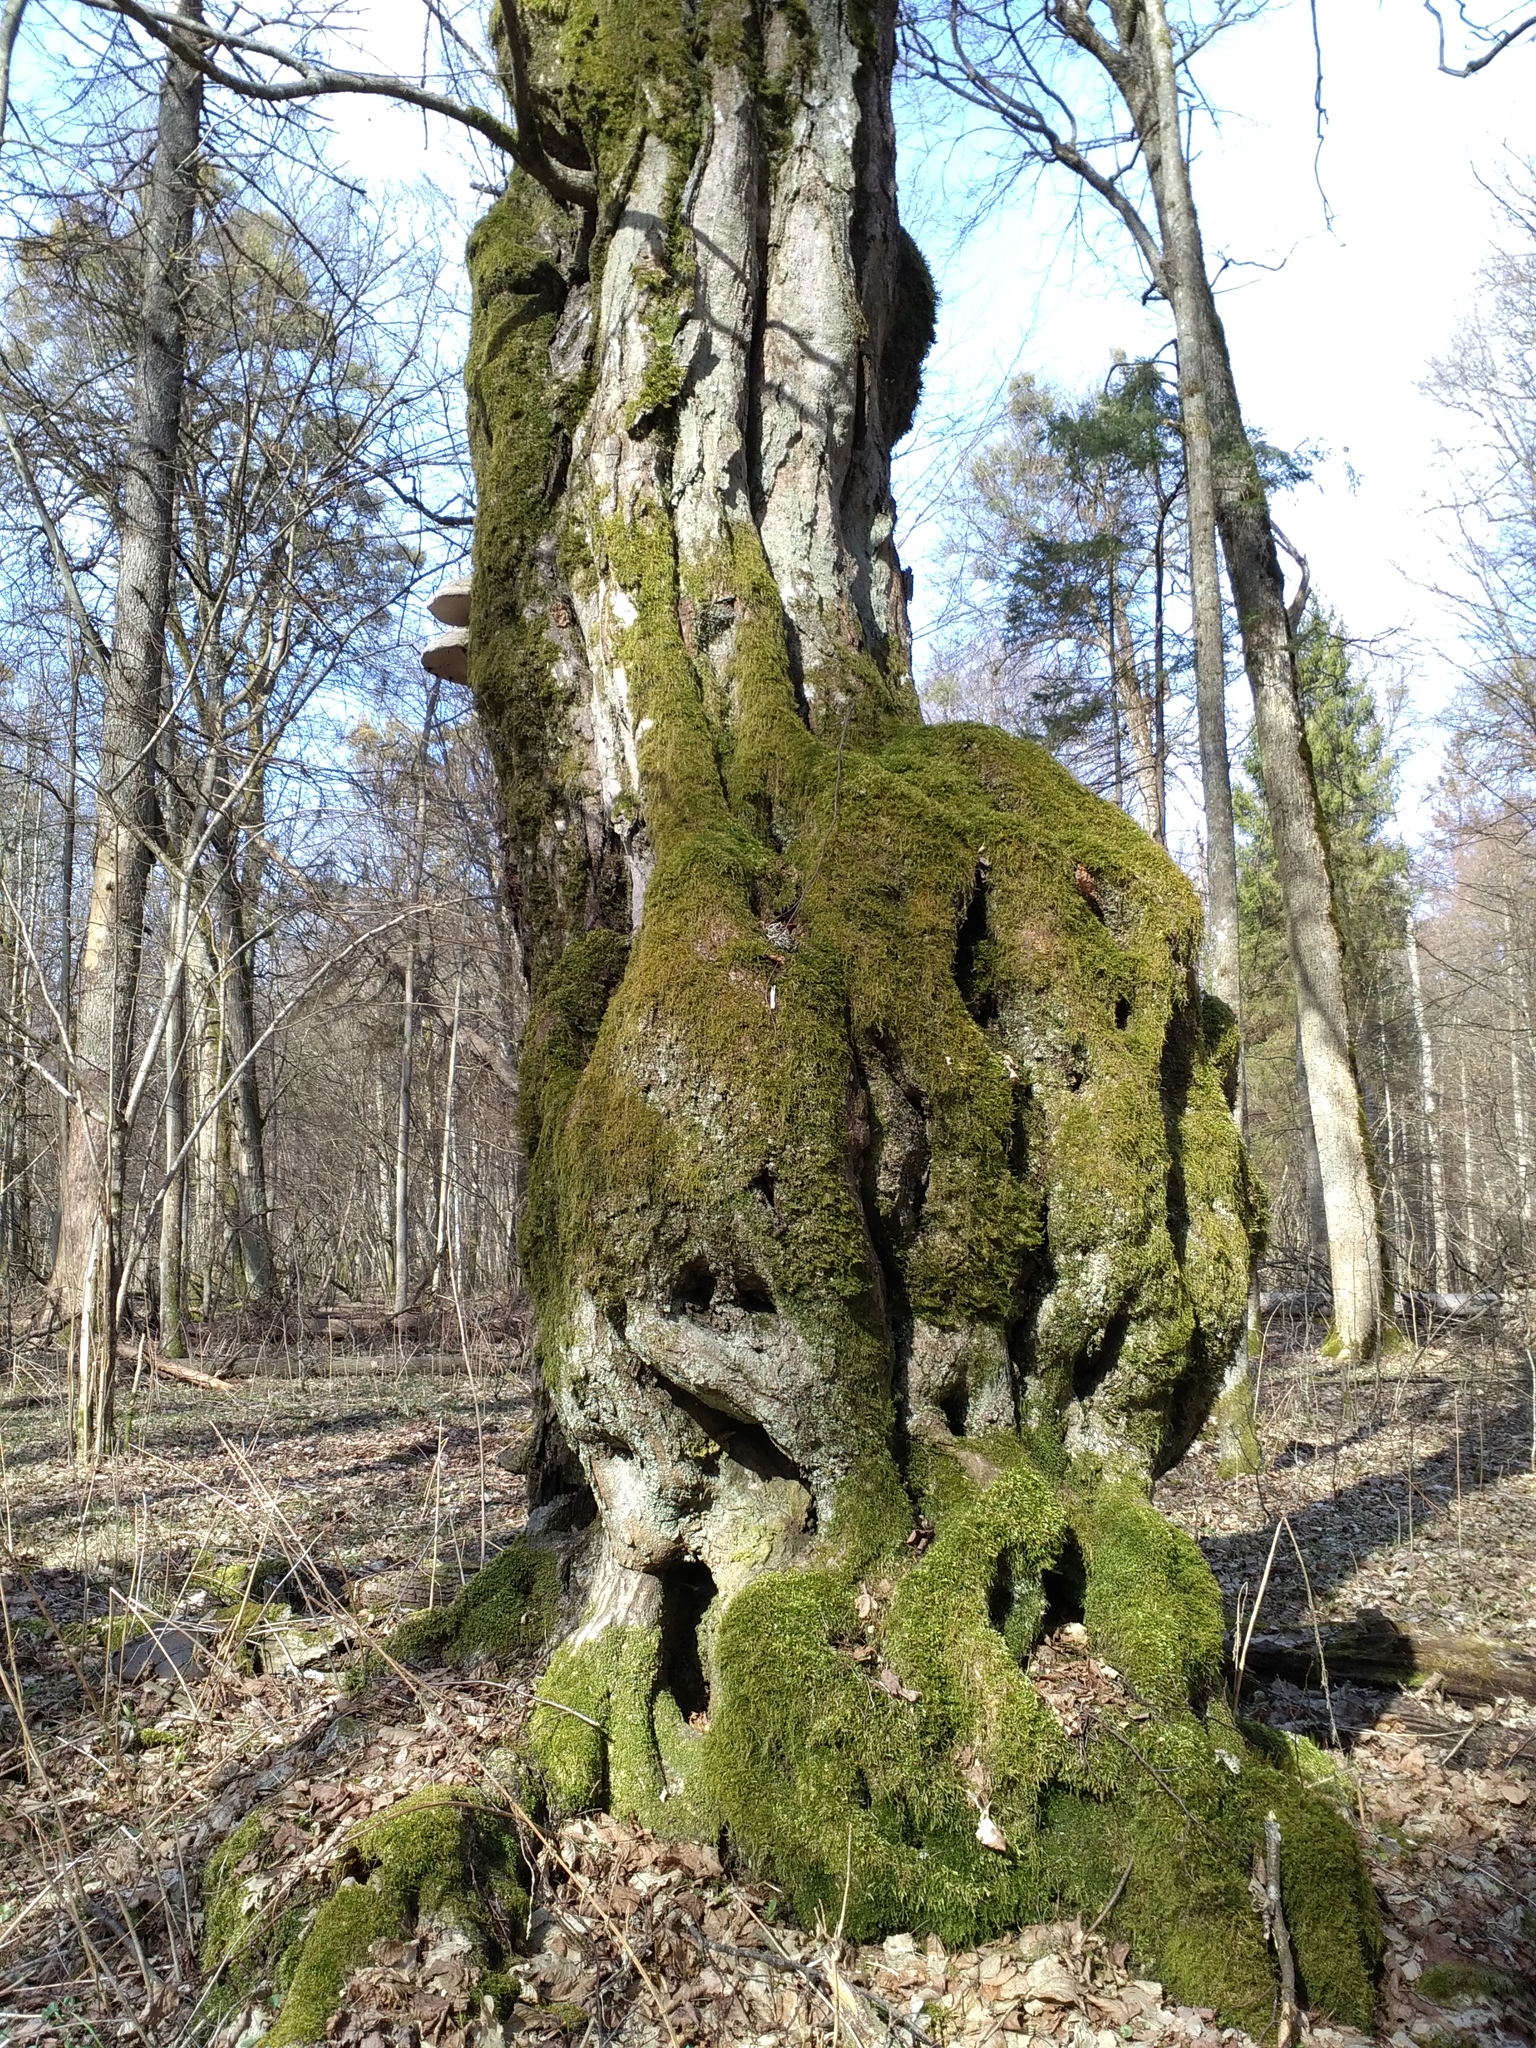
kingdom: Plantae
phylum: Tracheophyta
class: Magnoliopsida
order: Fagales
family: Betulaceae
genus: Carpinus
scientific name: Carpinus betulus
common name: Hornbeam
